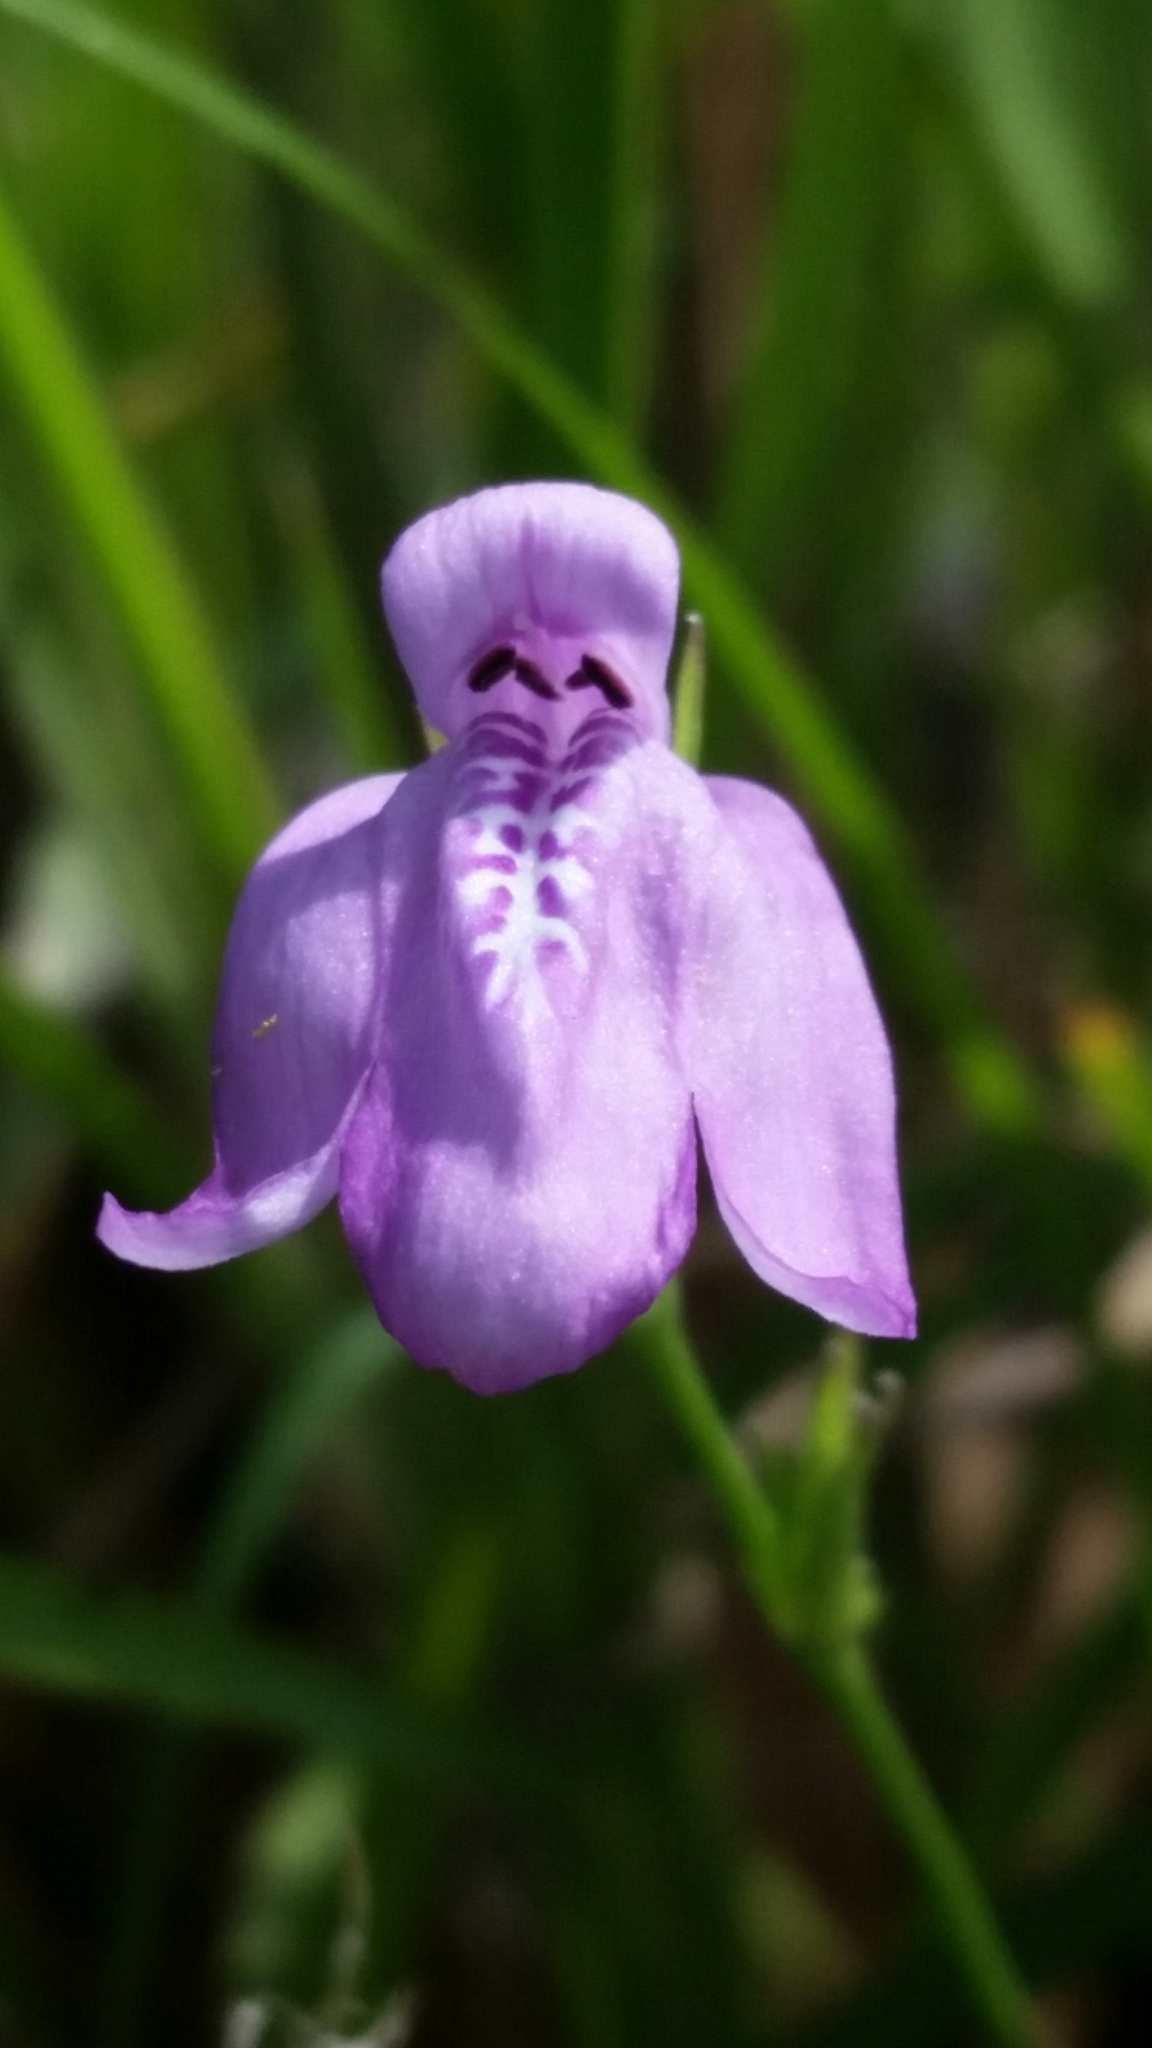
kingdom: Plantae
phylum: Tracheophyta
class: Magnoliopsida
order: Lamiales
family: Acanthaceae
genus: Dianthera
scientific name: Dianthera angusta
